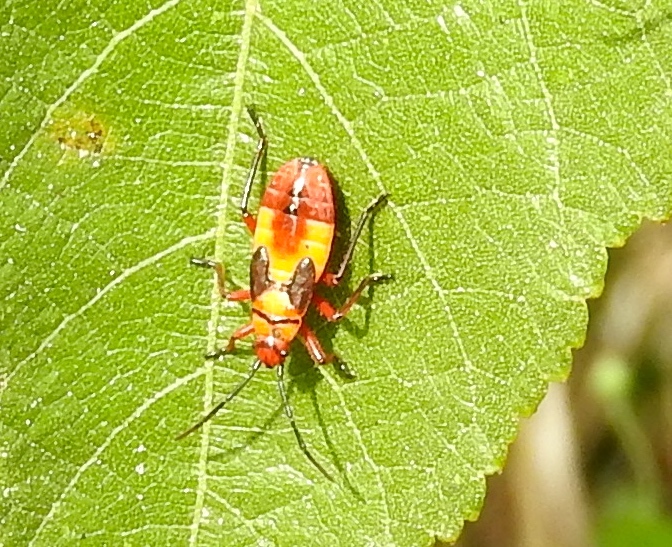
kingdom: Animalia
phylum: Arthropoda
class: Insecta
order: Hemiptera
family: Lygaeidae
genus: Oncopeltus
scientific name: Oncopeltus guttaloides
